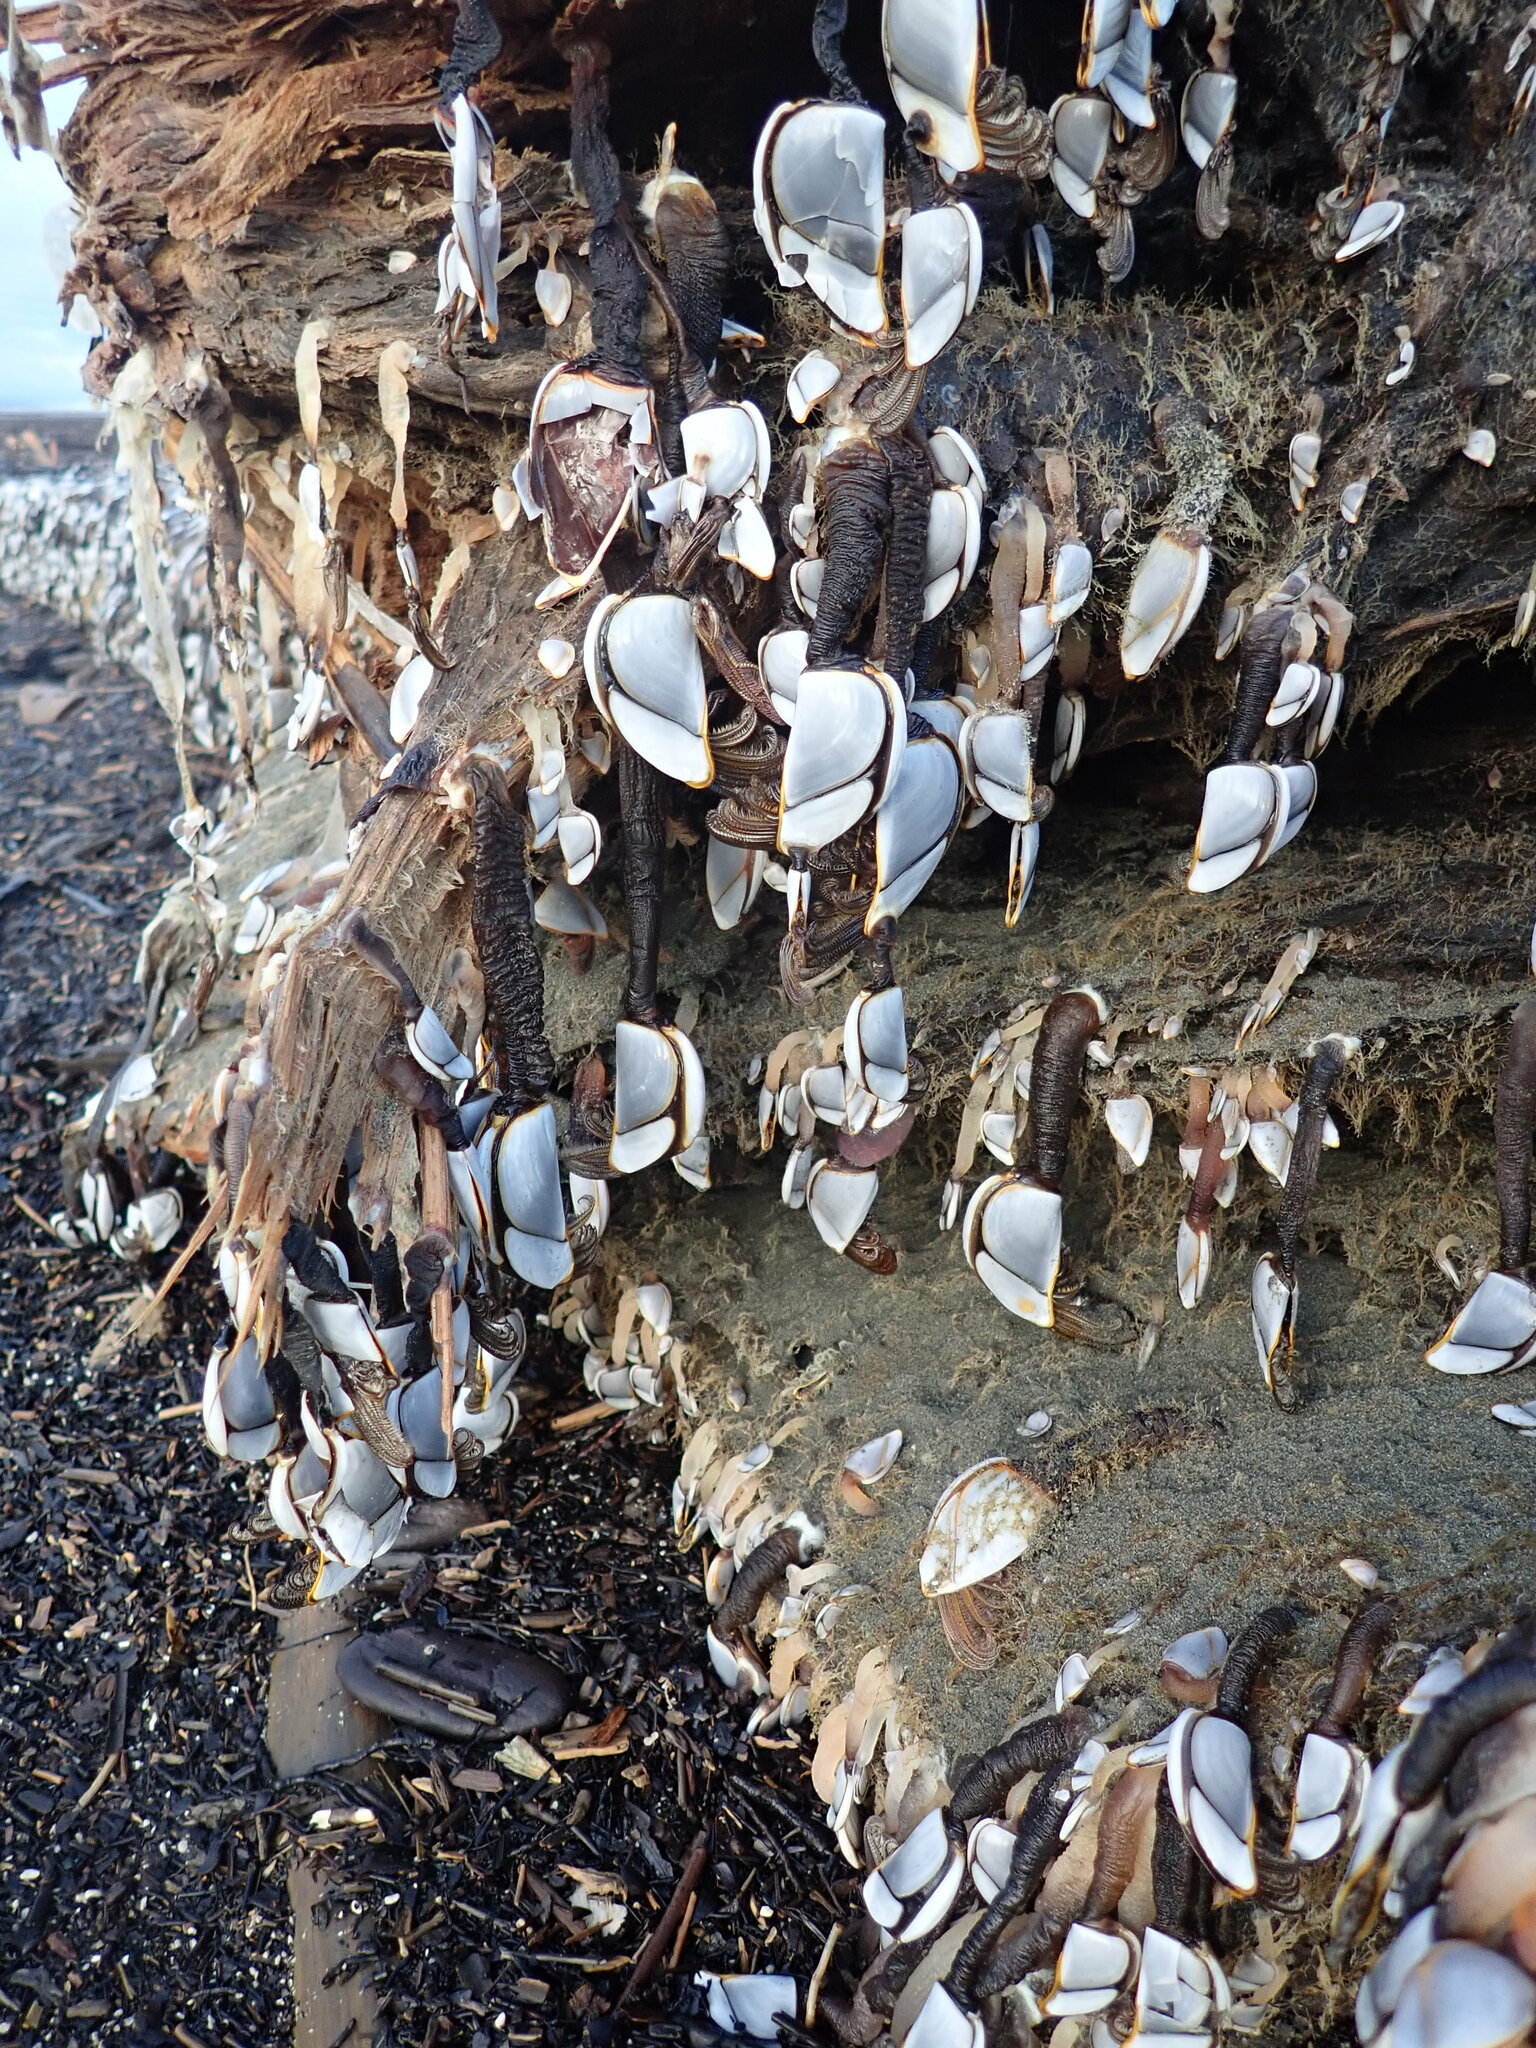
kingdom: Animalia
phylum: Arthropoda
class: Maxillopoda
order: Pedunculata
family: Lepadidae
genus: Lepas
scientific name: Lepas testudinata
